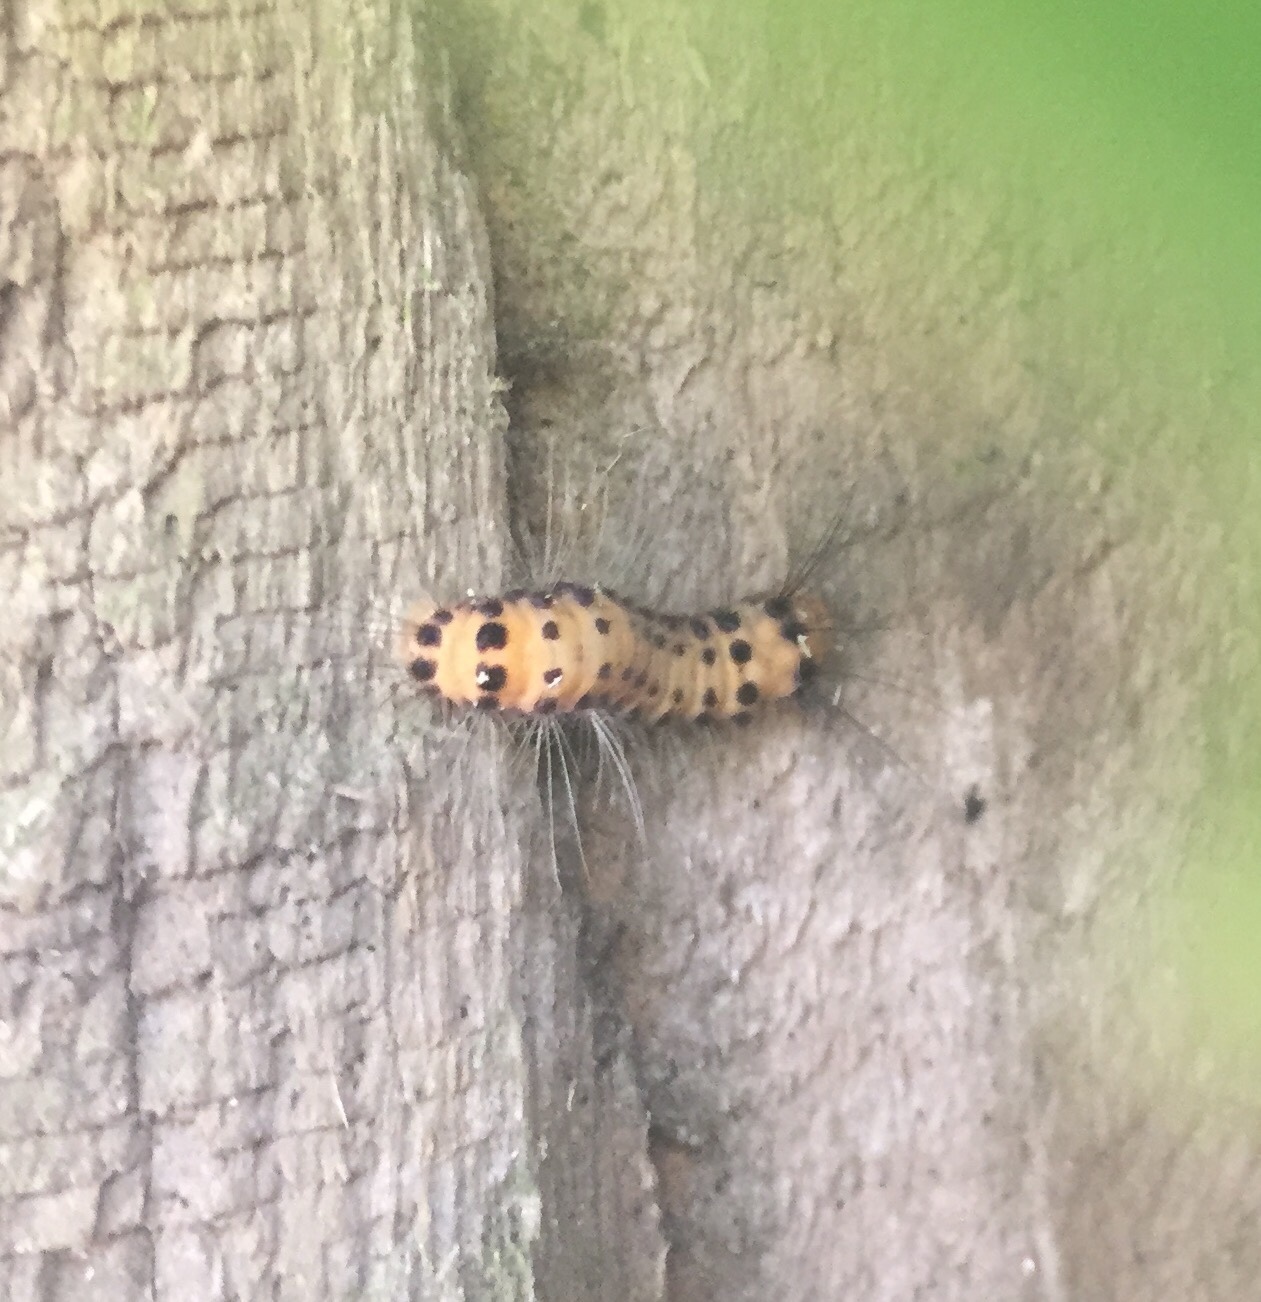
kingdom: Animalia
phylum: Arthropoda
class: Insecta
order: Lepidoptera
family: Zygaenidae
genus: Artona
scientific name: Artona martini
